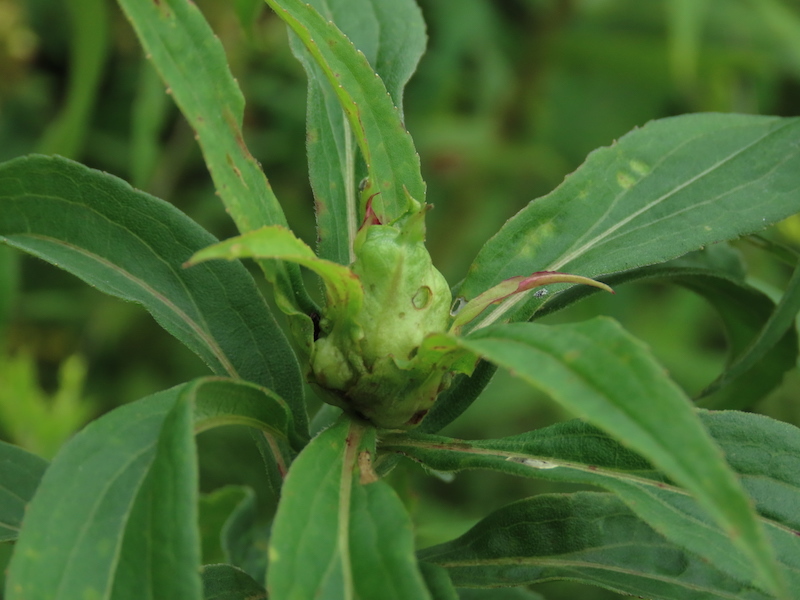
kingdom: Animalia
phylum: Arthropoda
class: Insecta
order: Diptera
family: Cecidomyiidae
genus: Dasineura
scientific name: Dasineura folliculi
